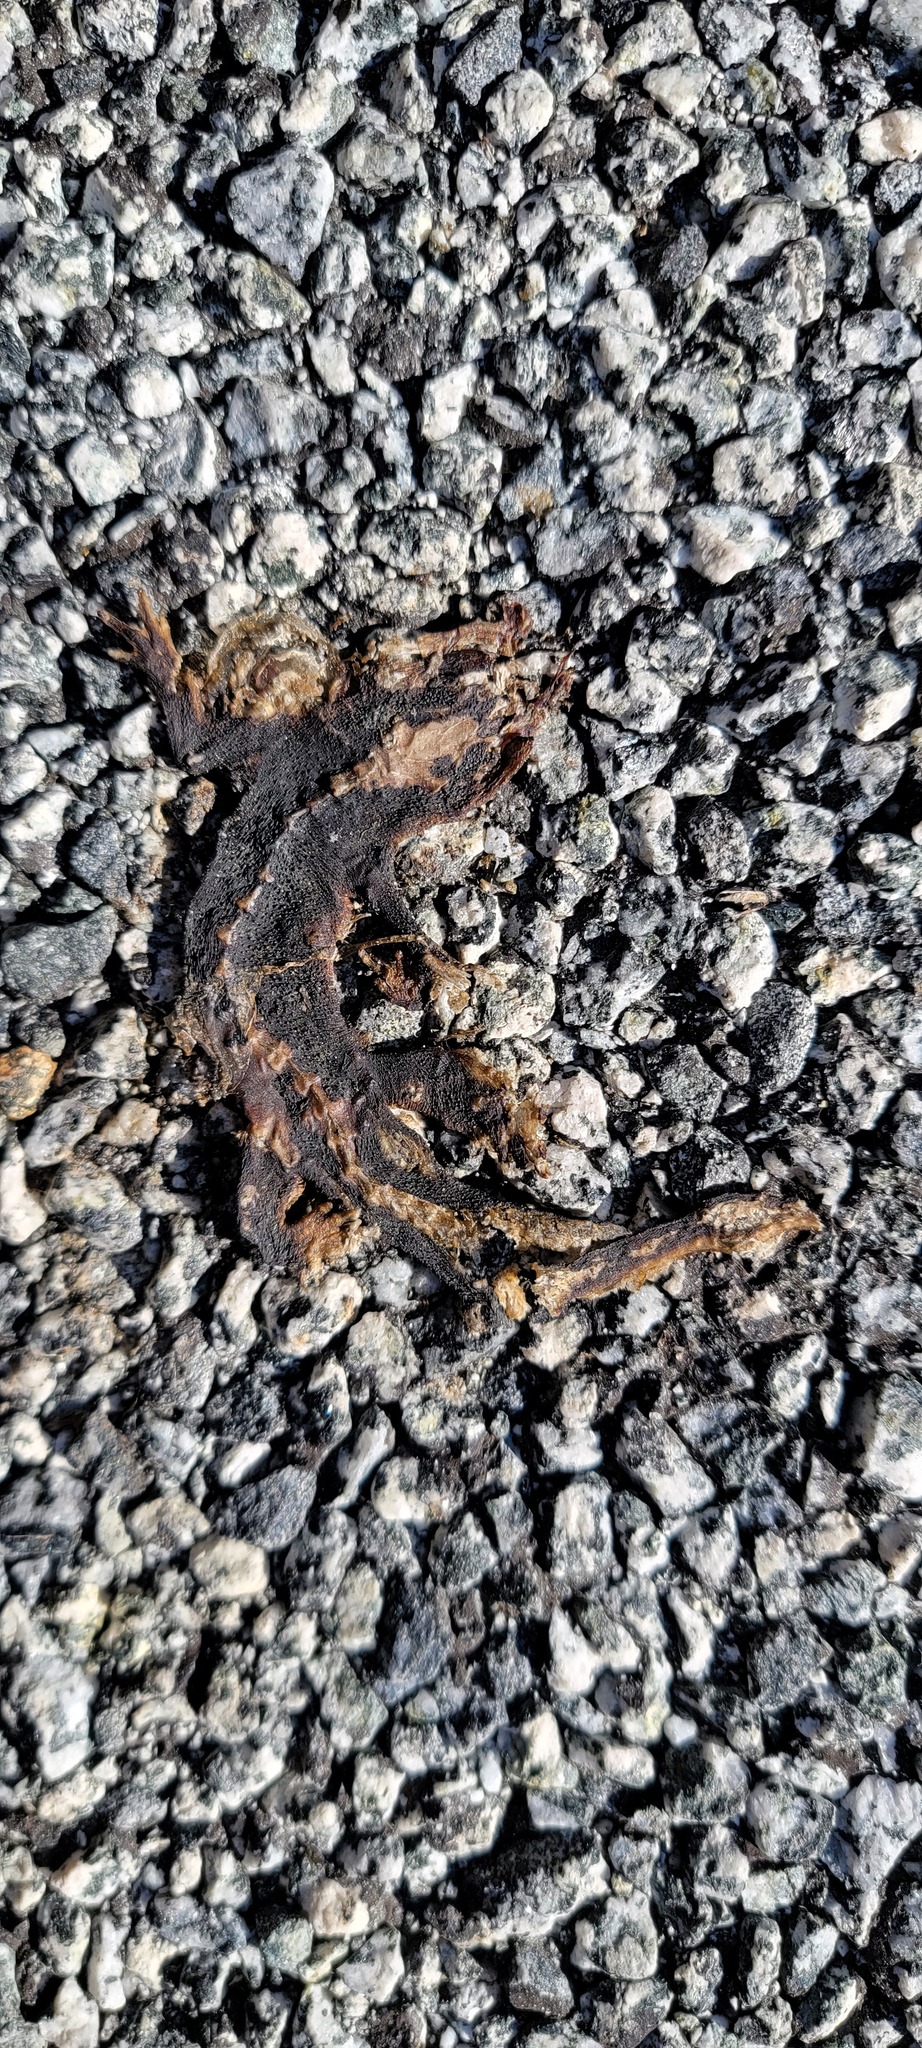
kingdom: Animalia
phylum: Chordata
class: Amphibia
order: Caudata
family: Salamandridae
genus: Taricha
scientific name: Taricha
